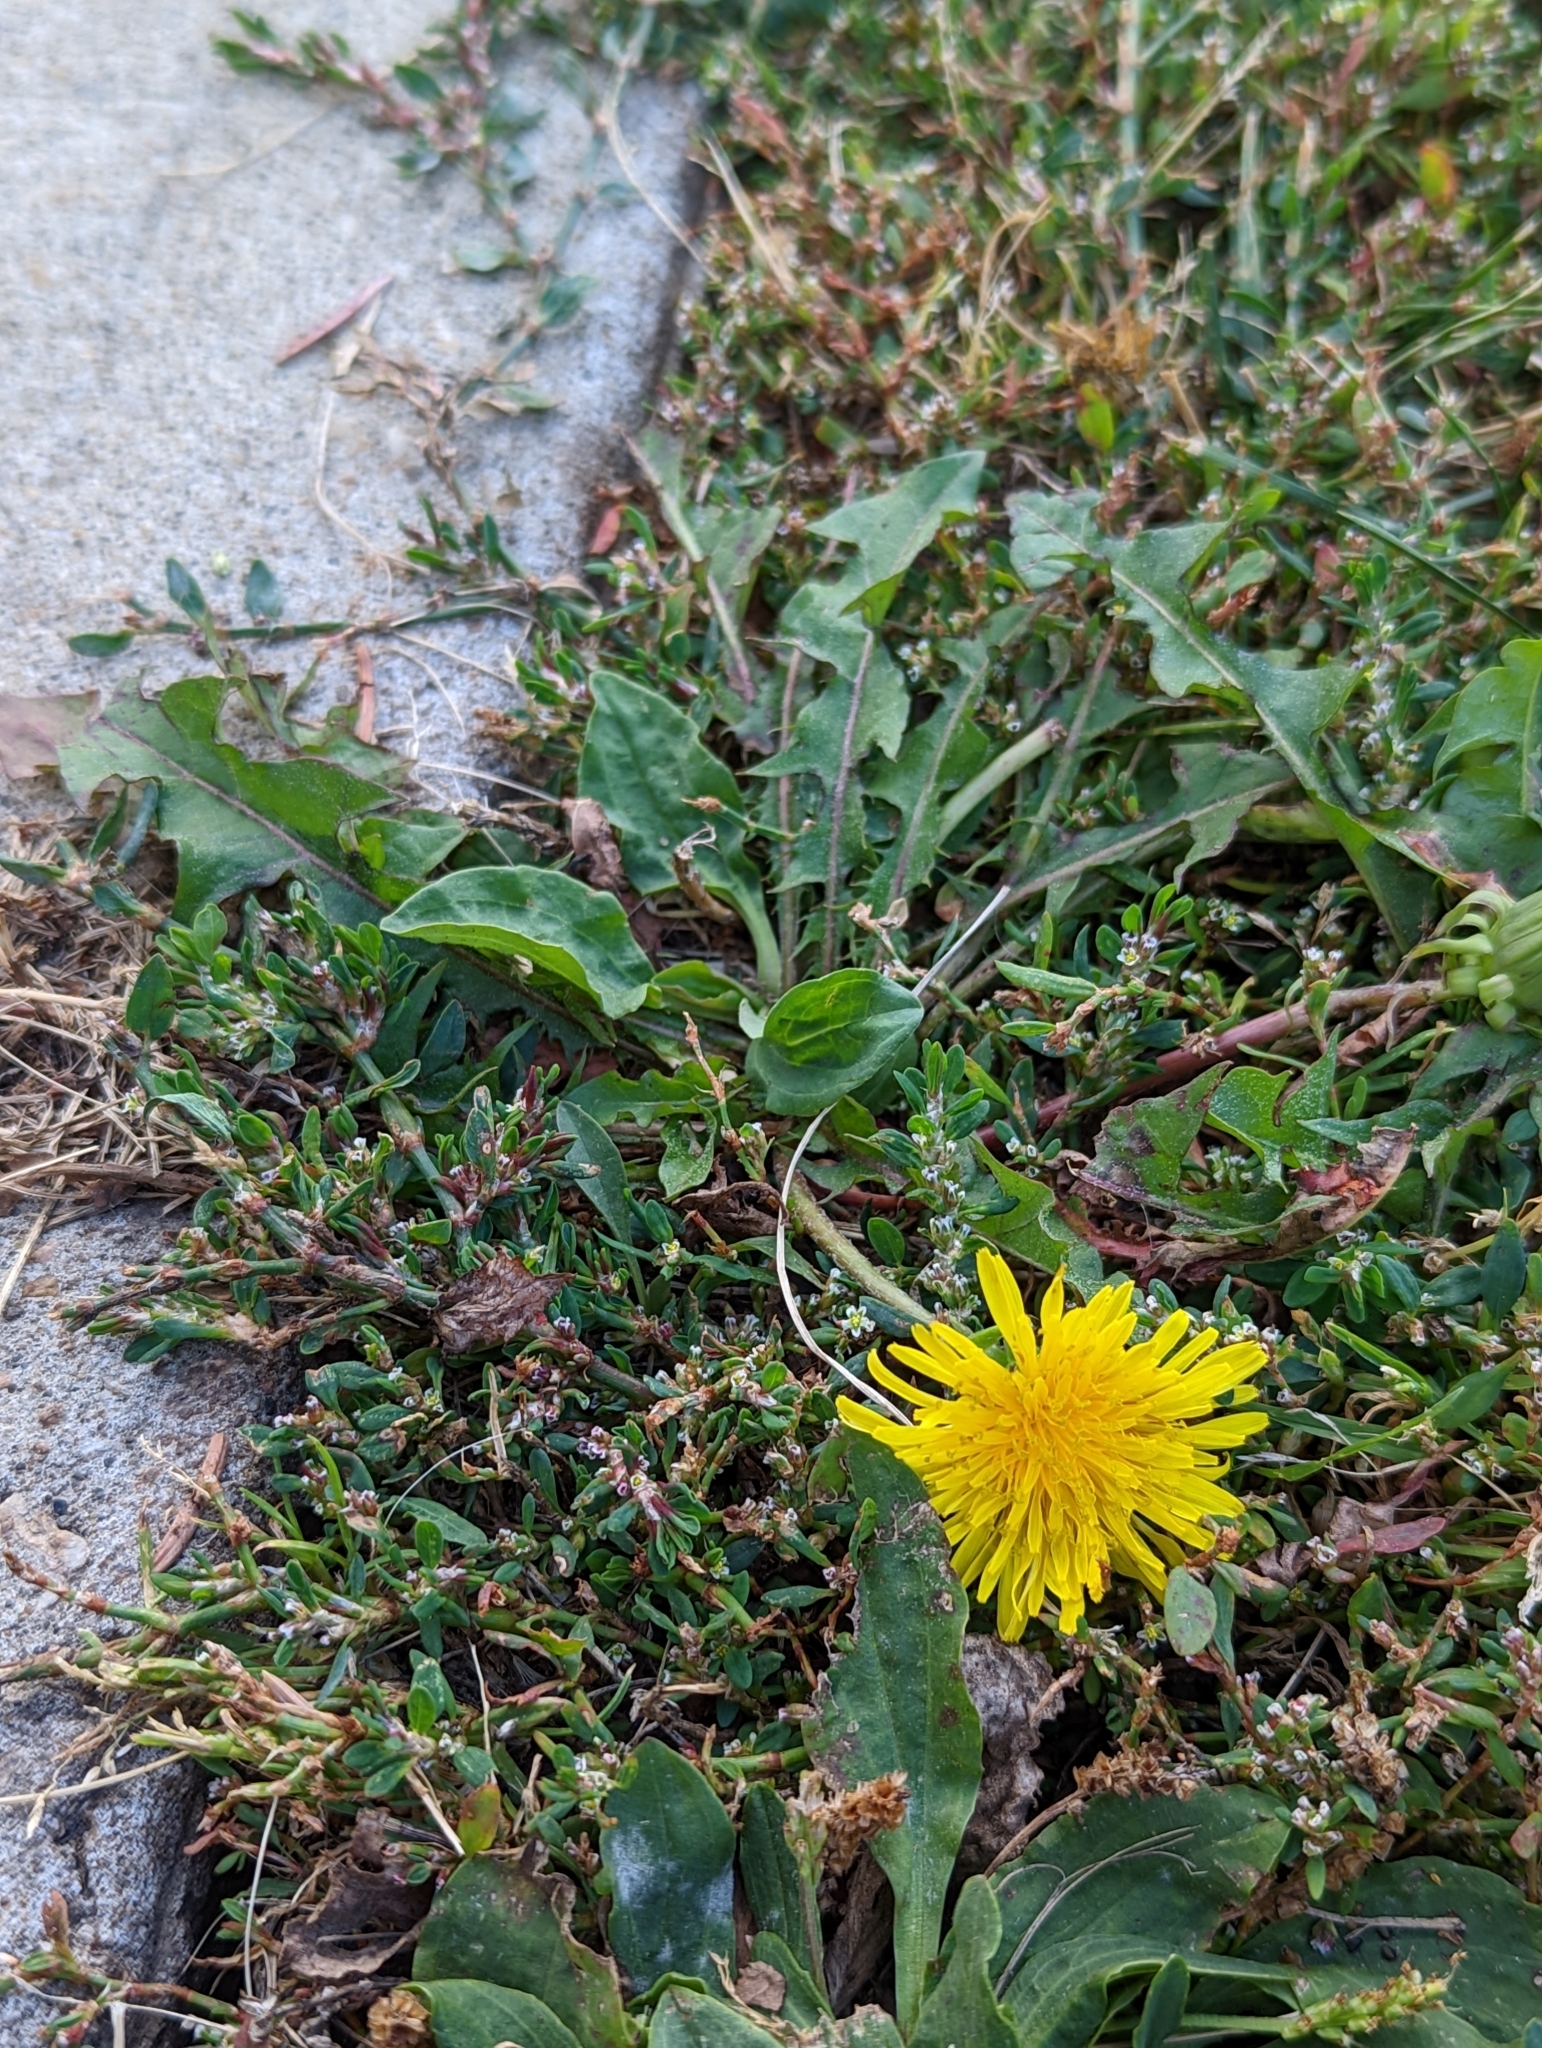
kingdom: Plantae
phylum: Tracheophyta
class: Magnoliopsida
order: Asterales
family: Asteraceae
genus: Taraxacum
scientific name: Taraxacum officinale
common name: Common dandelion
